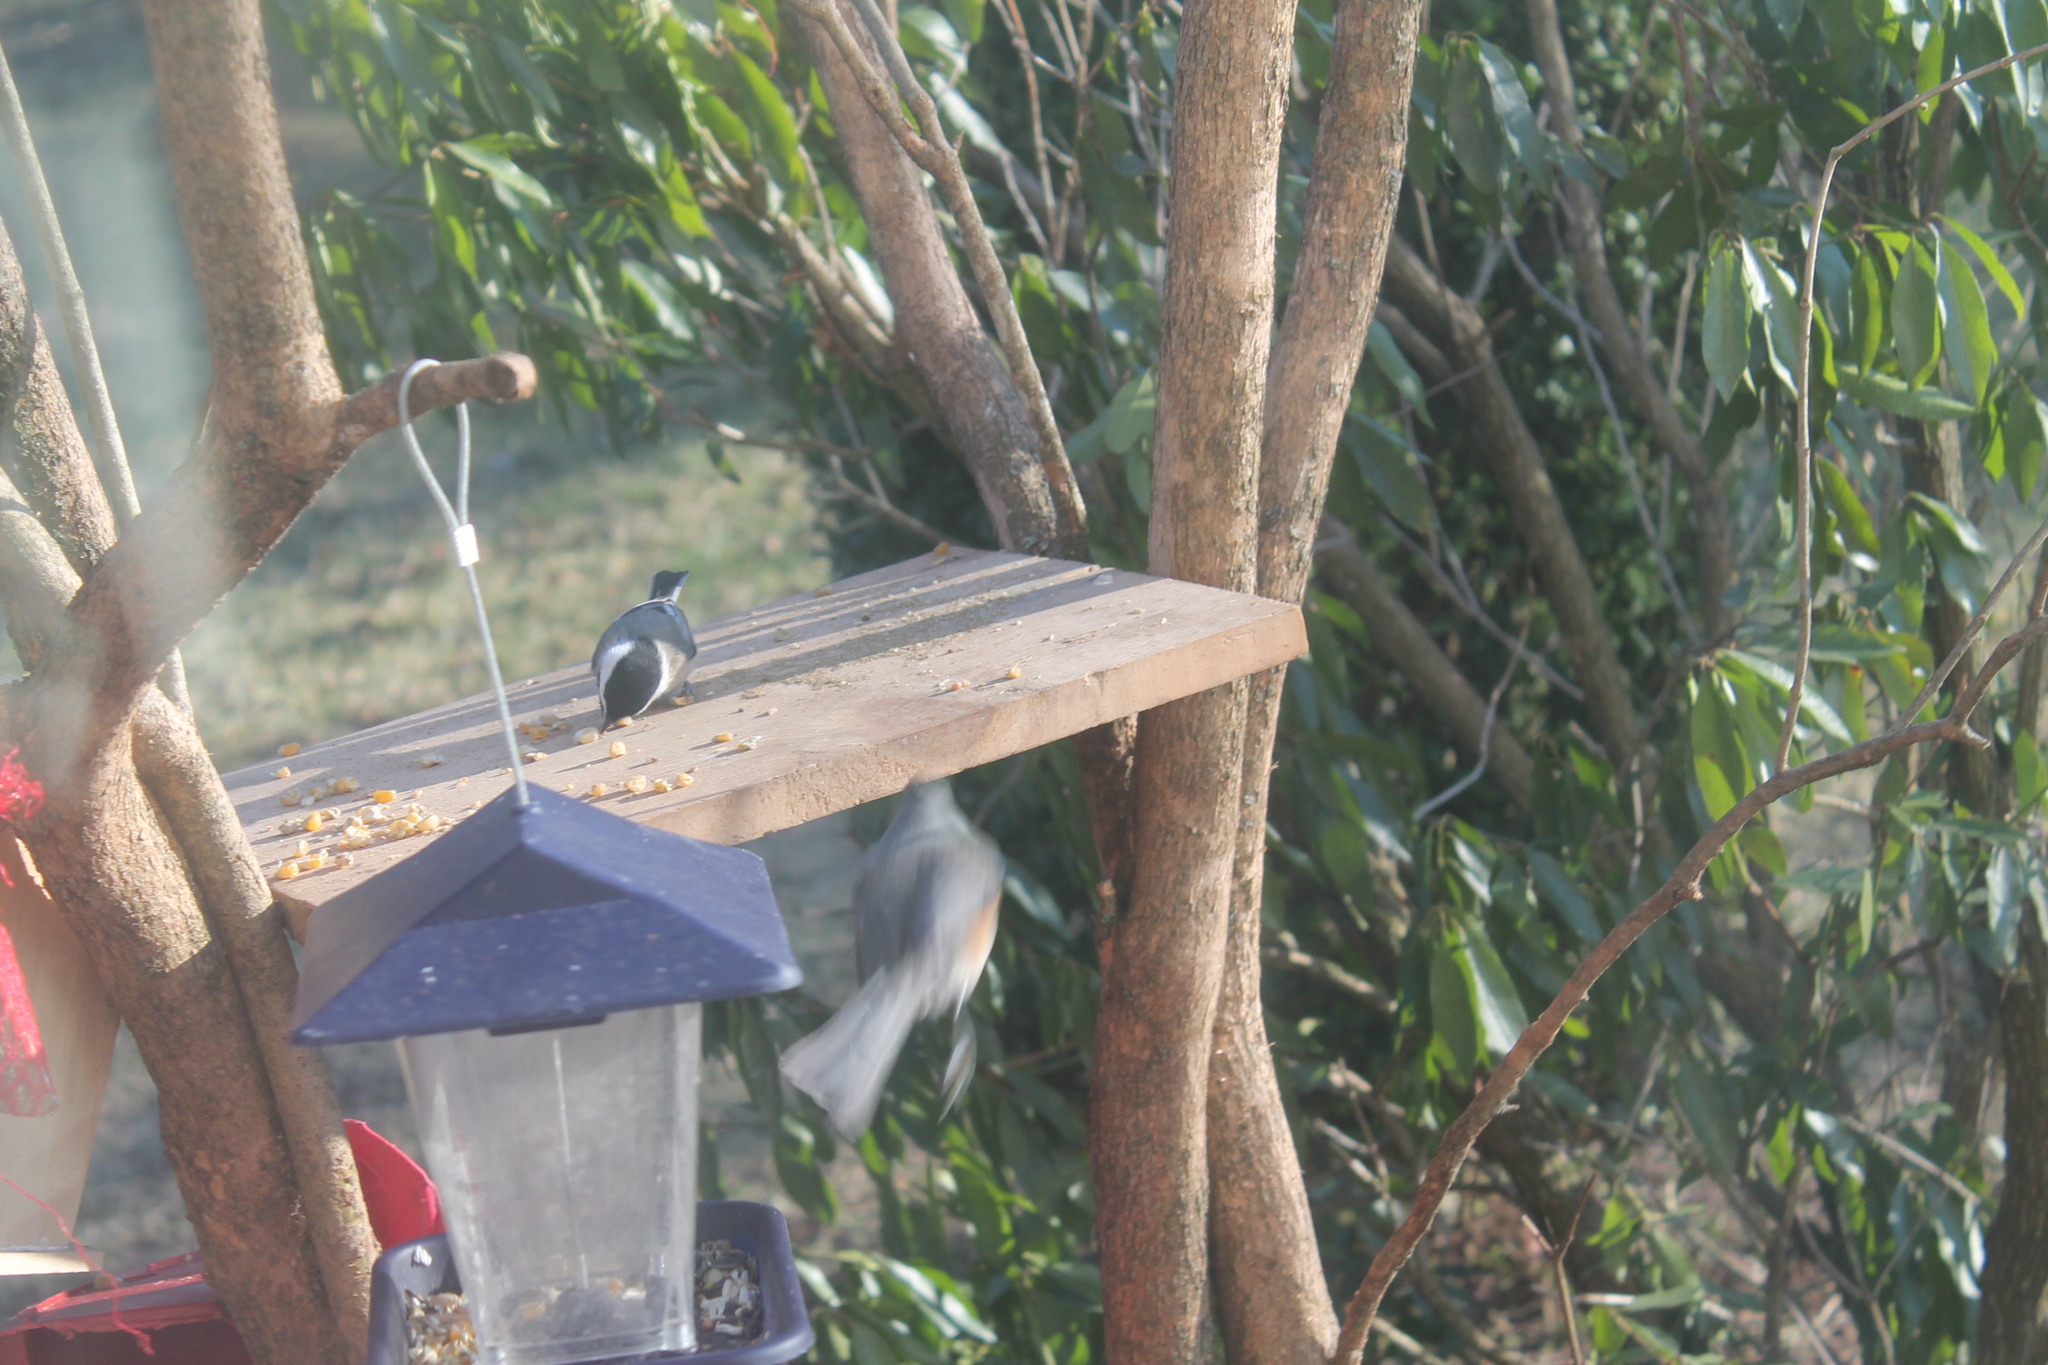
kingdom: Animalia
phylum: Chordata
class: Aves
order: Passeriformes
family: Paridae
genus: Poecile
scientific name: Poecile atricapillus
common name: Black-capped chickadee
